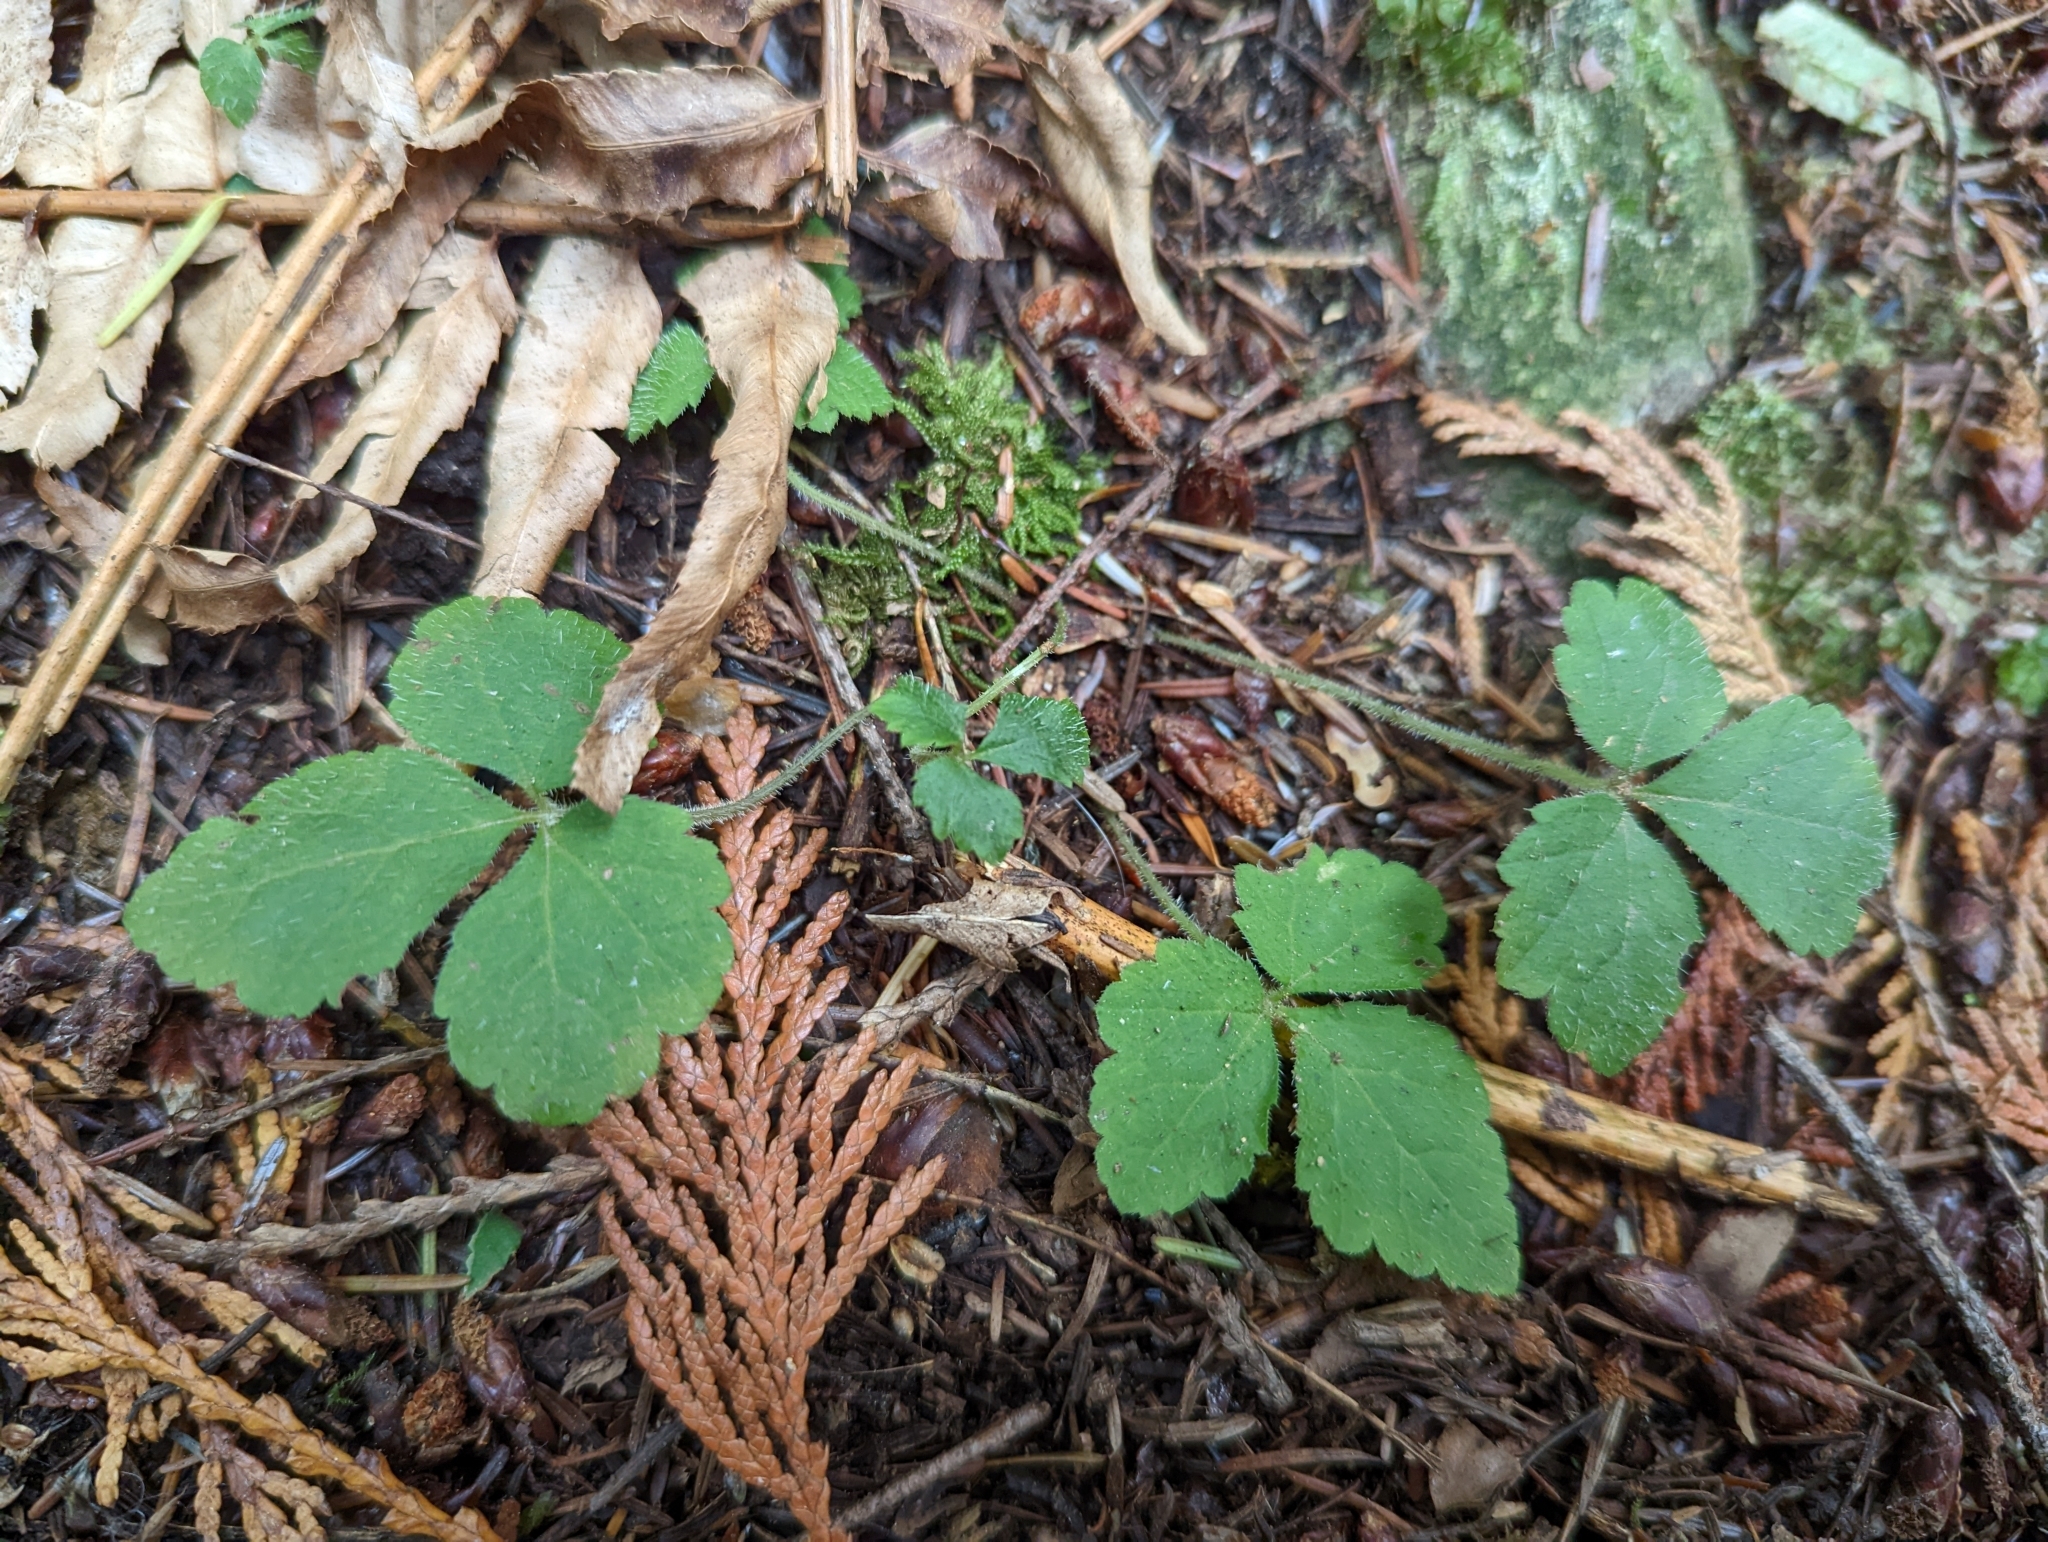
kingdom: Plantae
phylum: Tracheophyta
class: Magnoliopsida
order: Saxifragales
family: Saxifragaceae
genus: Tiarella
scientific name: Tiarella trifoliata
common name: Sugar-scoop
